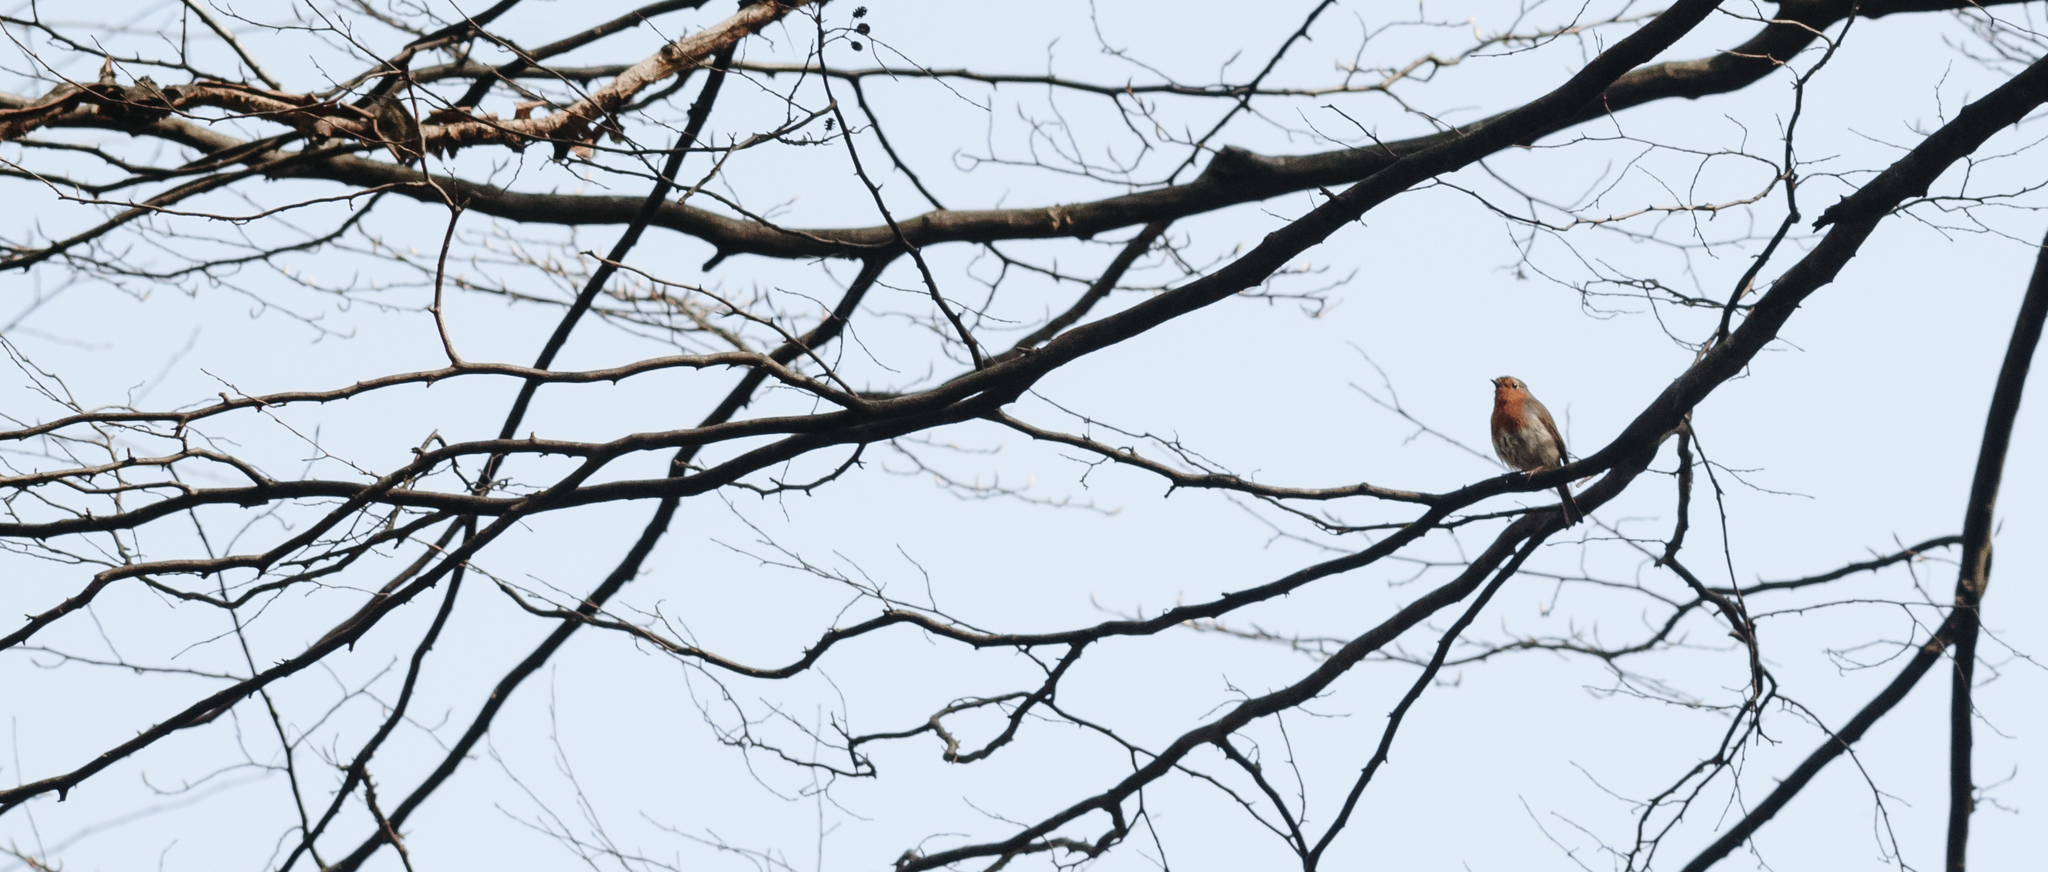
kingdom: Animalia
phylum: Chordata
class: Aves
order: Passeriformes
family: Muscicapidae
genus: Erithacus
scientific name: Erithacus rubecula
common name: European robin
